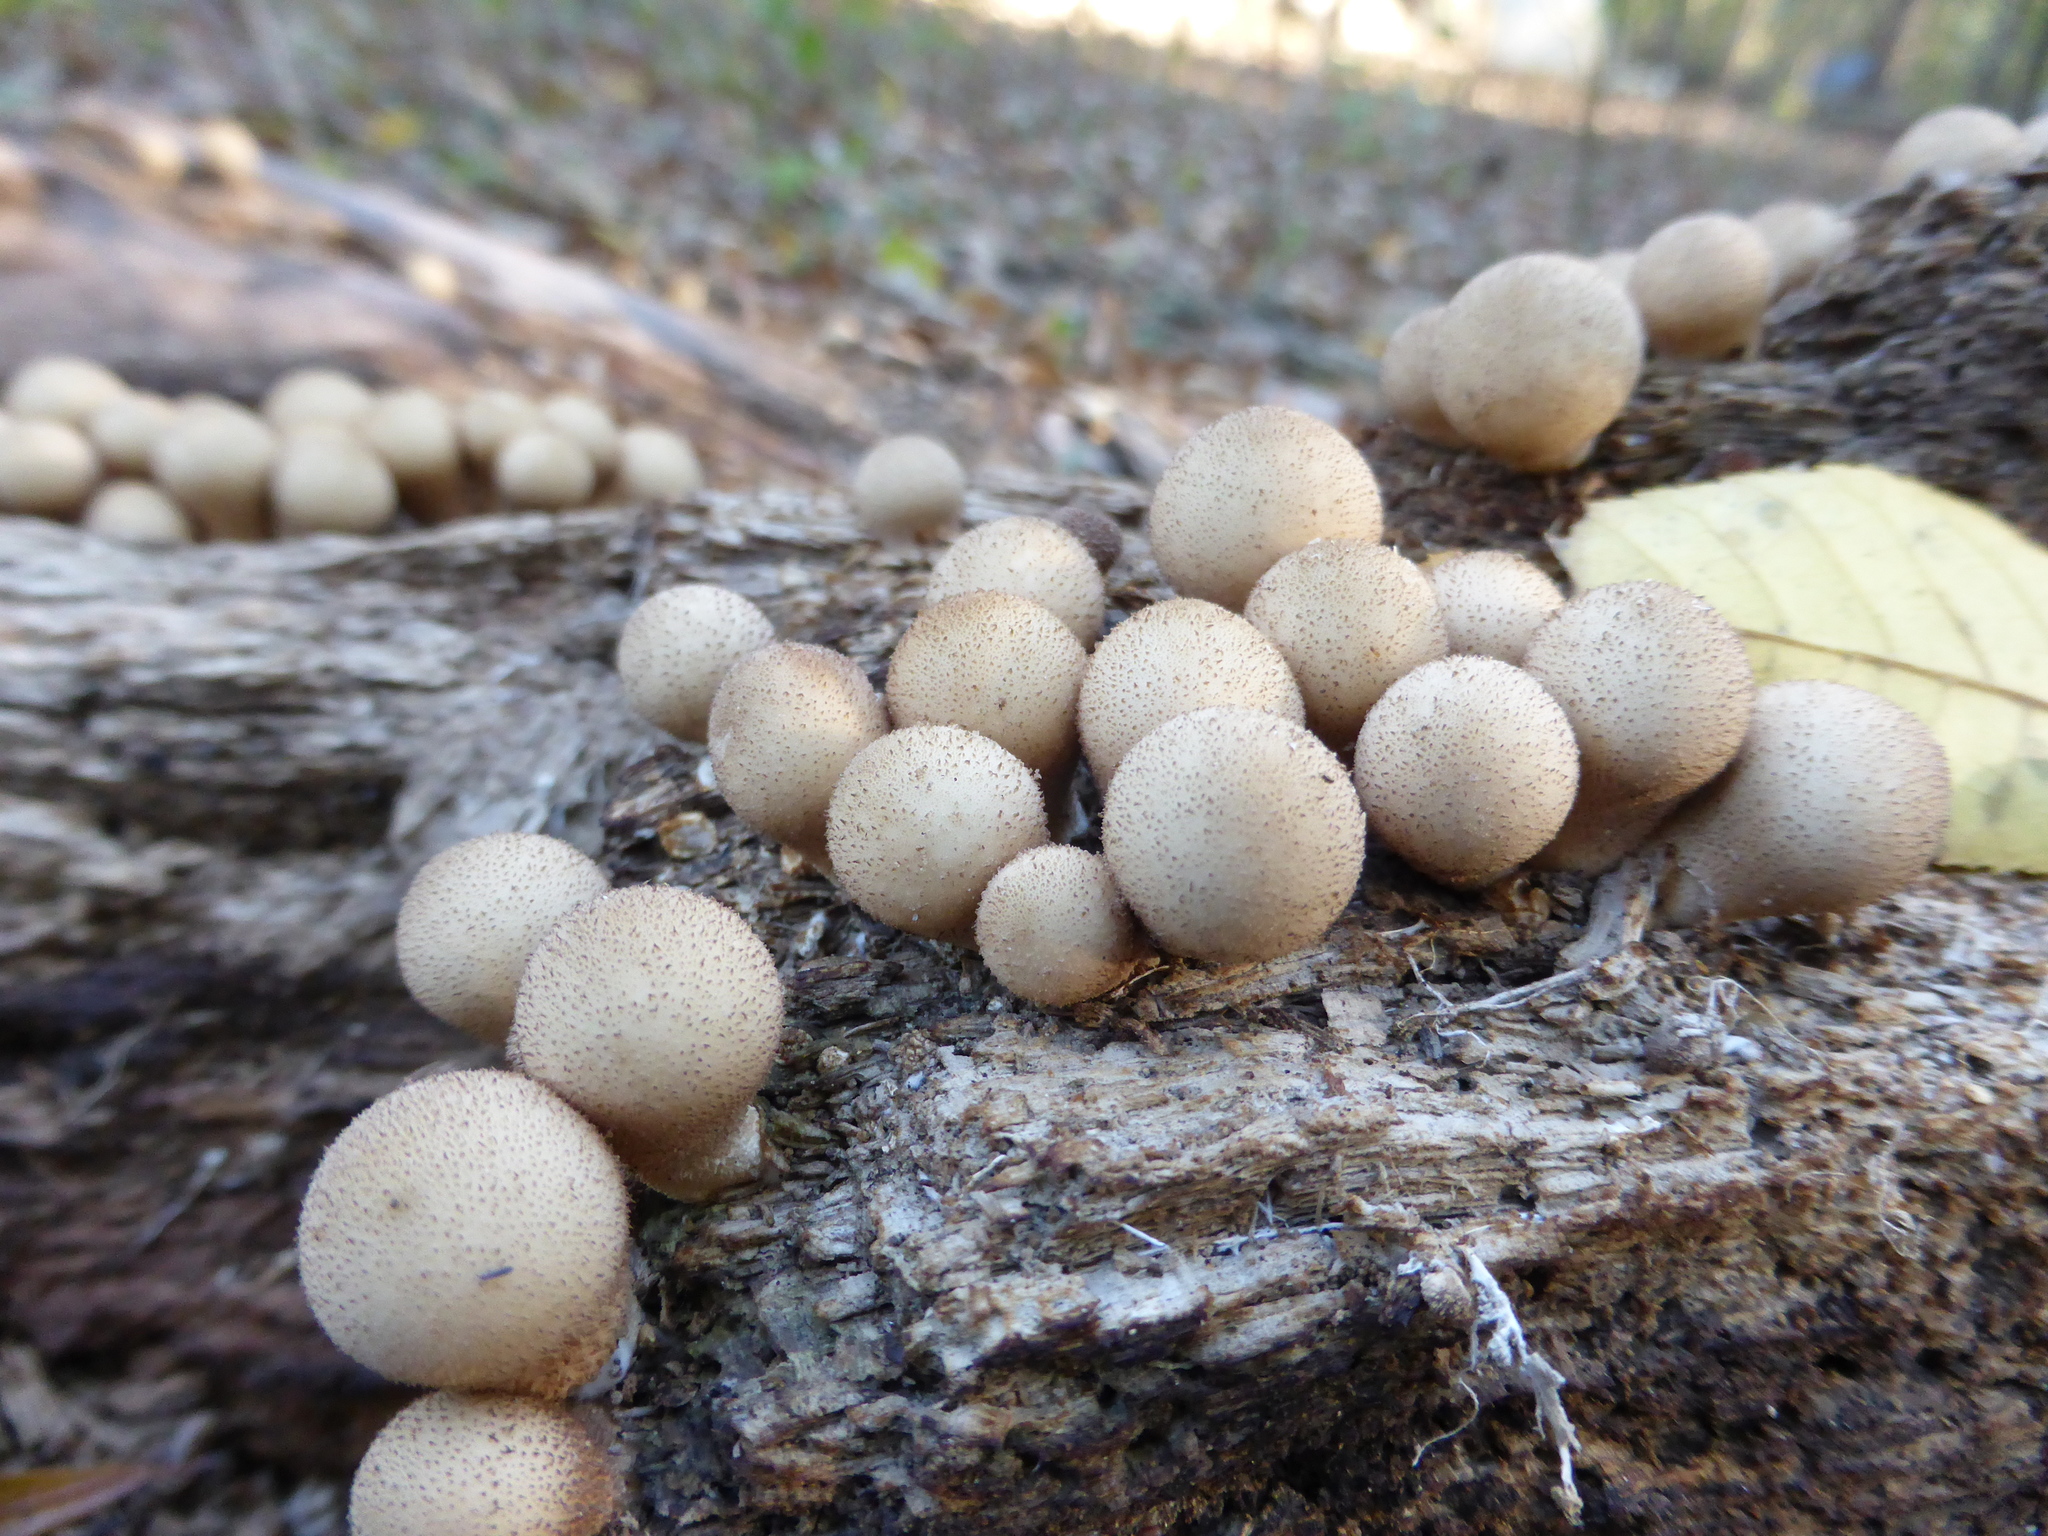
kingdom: Fungi
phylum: Basidiomycota
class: Agaricomycetes
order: Agaricales
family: Lycoperdaceae
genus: Apioperdon
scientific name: Apioperdon pyriforme
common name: Pear-shaped puffball
